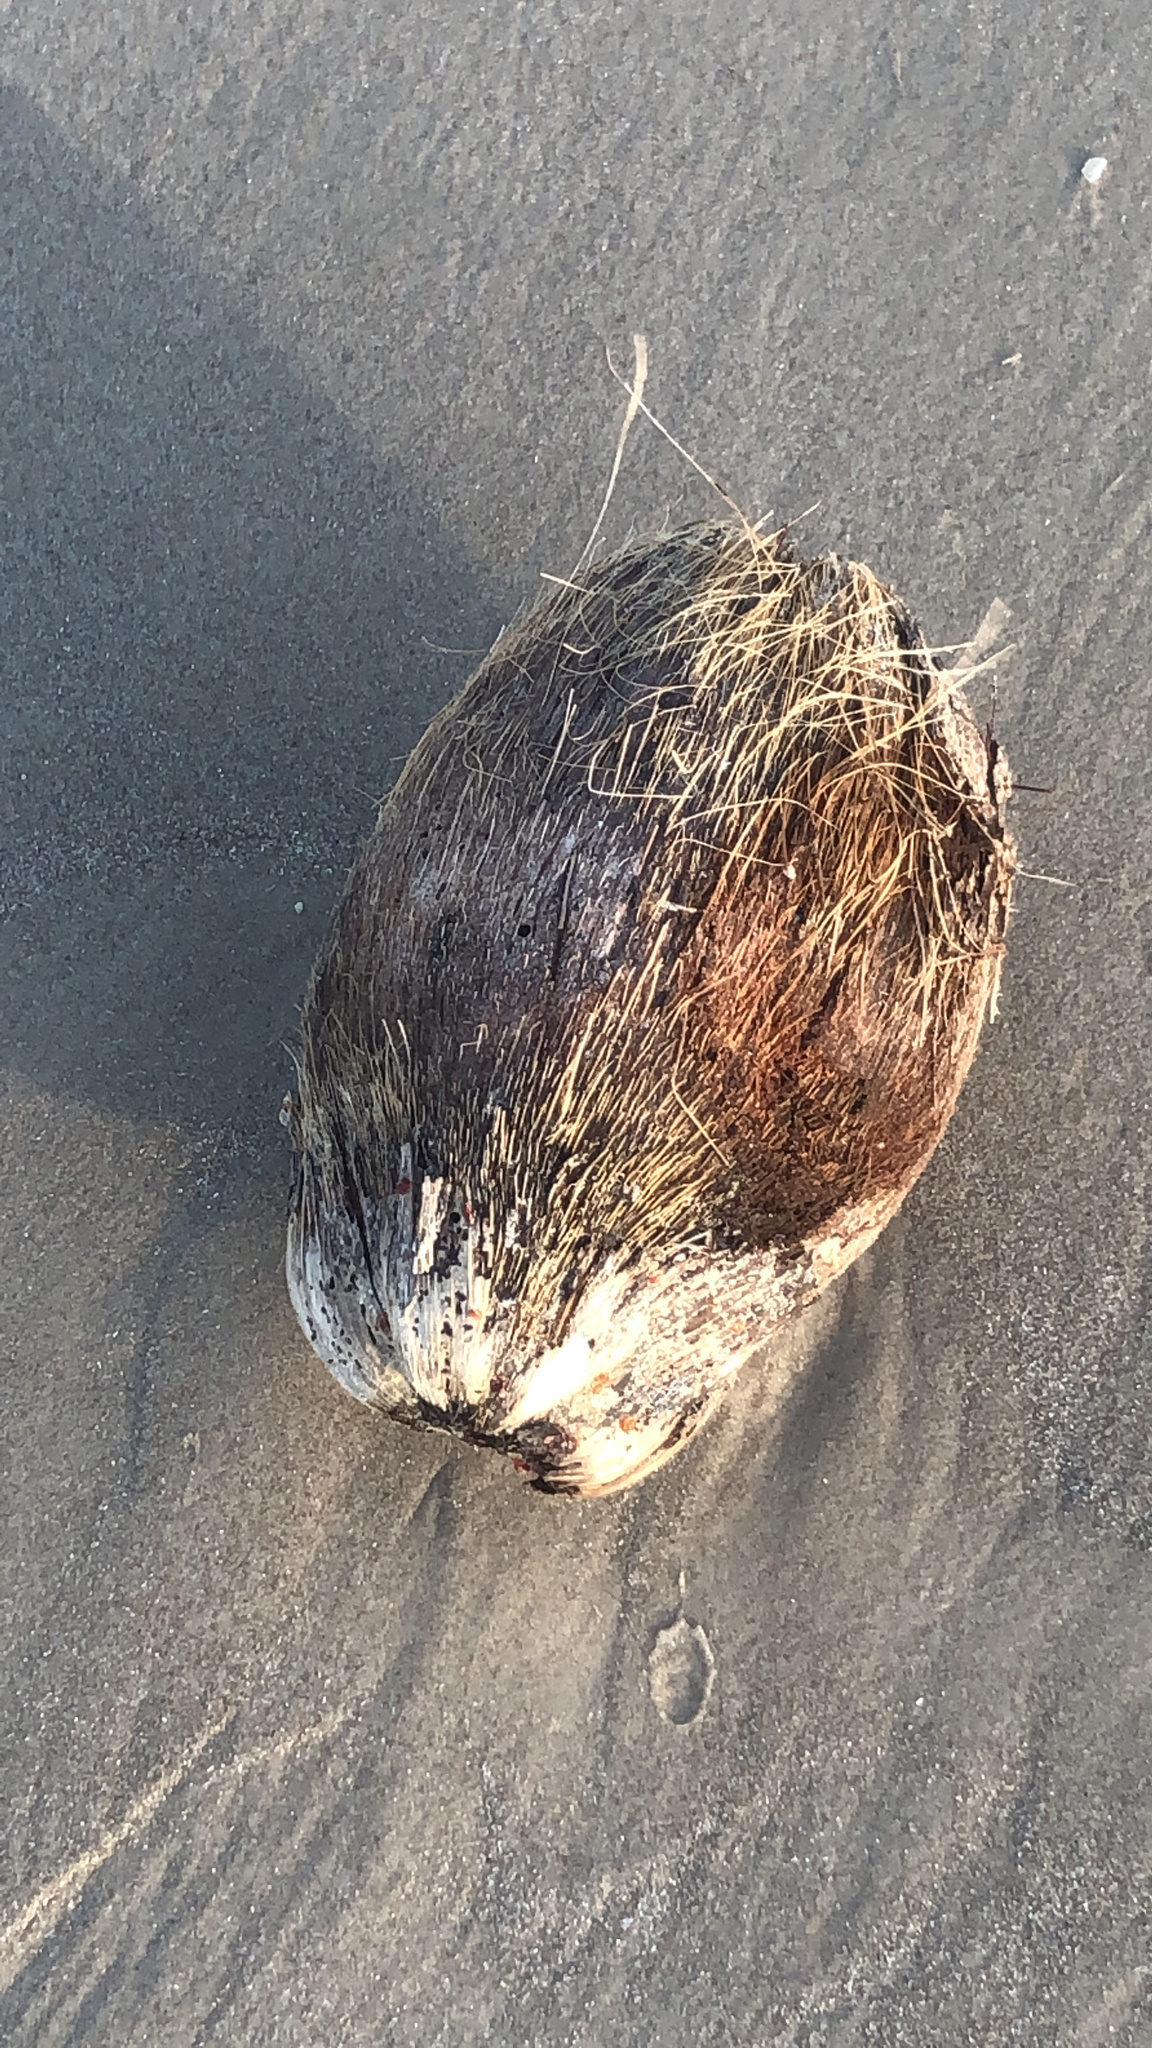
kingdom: Plantae
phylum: Tracheophyta
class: Liliopsida
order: Arecales
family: Arecaceae
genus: Cocos
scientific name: Cocos nucifera
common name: Coconut palm
